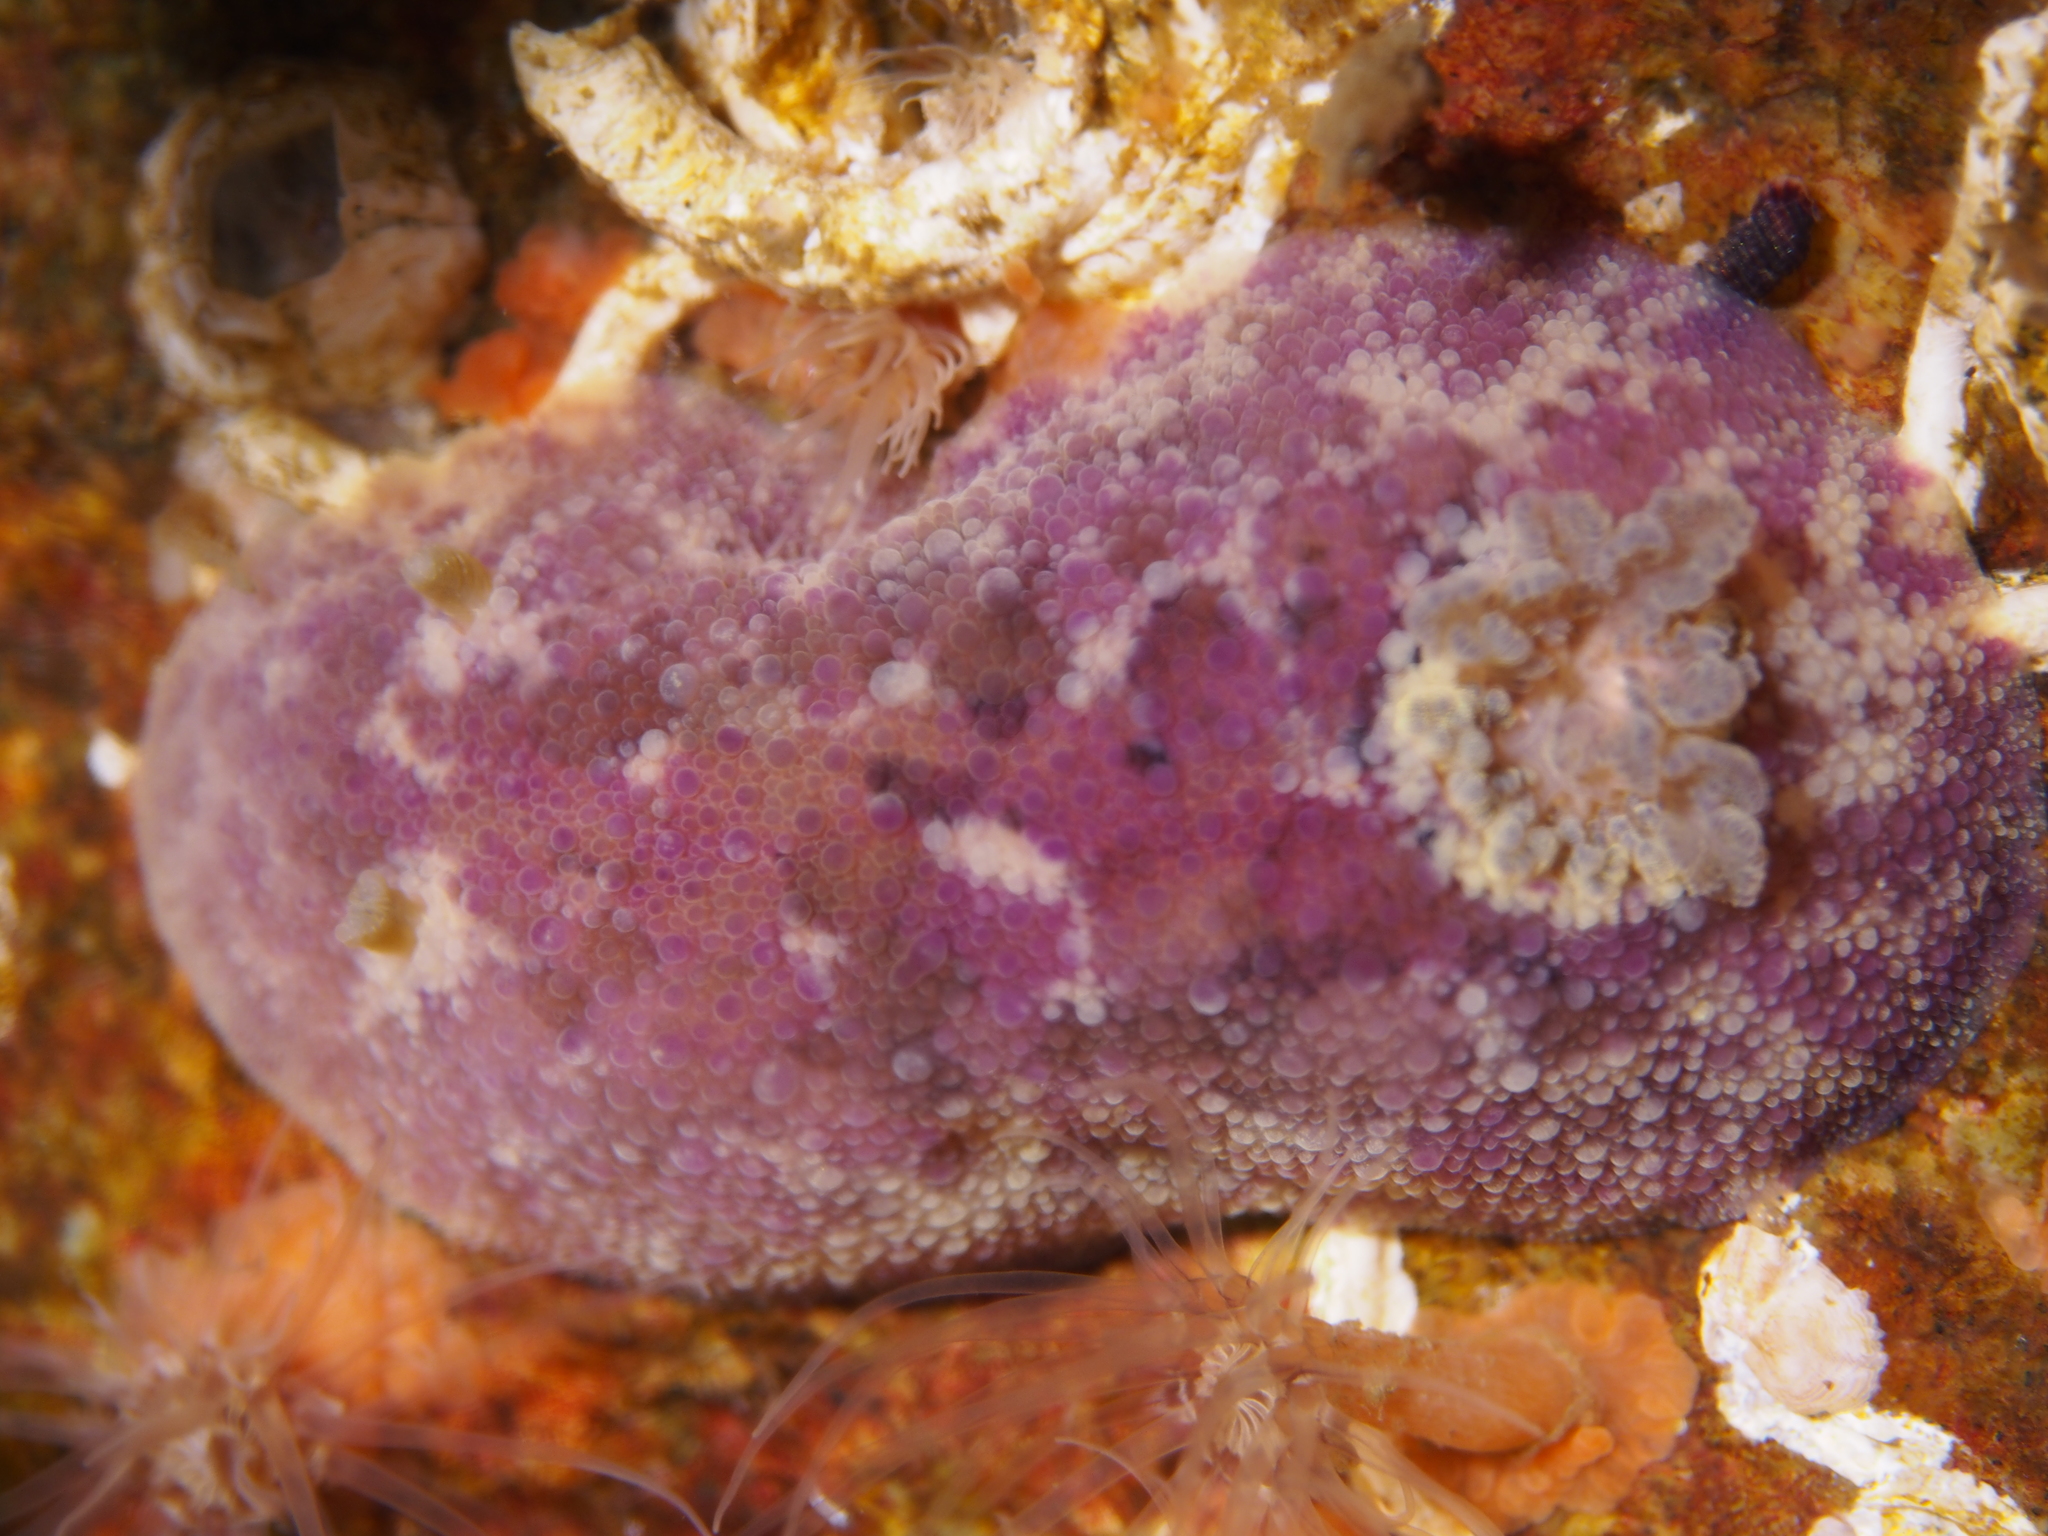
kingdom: Animalia
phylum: Mollusca
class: Gastropoda
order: Nudibranchia
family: Dorididae
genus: Doris
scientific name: Doris pseudoargus
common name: Sea lemon
